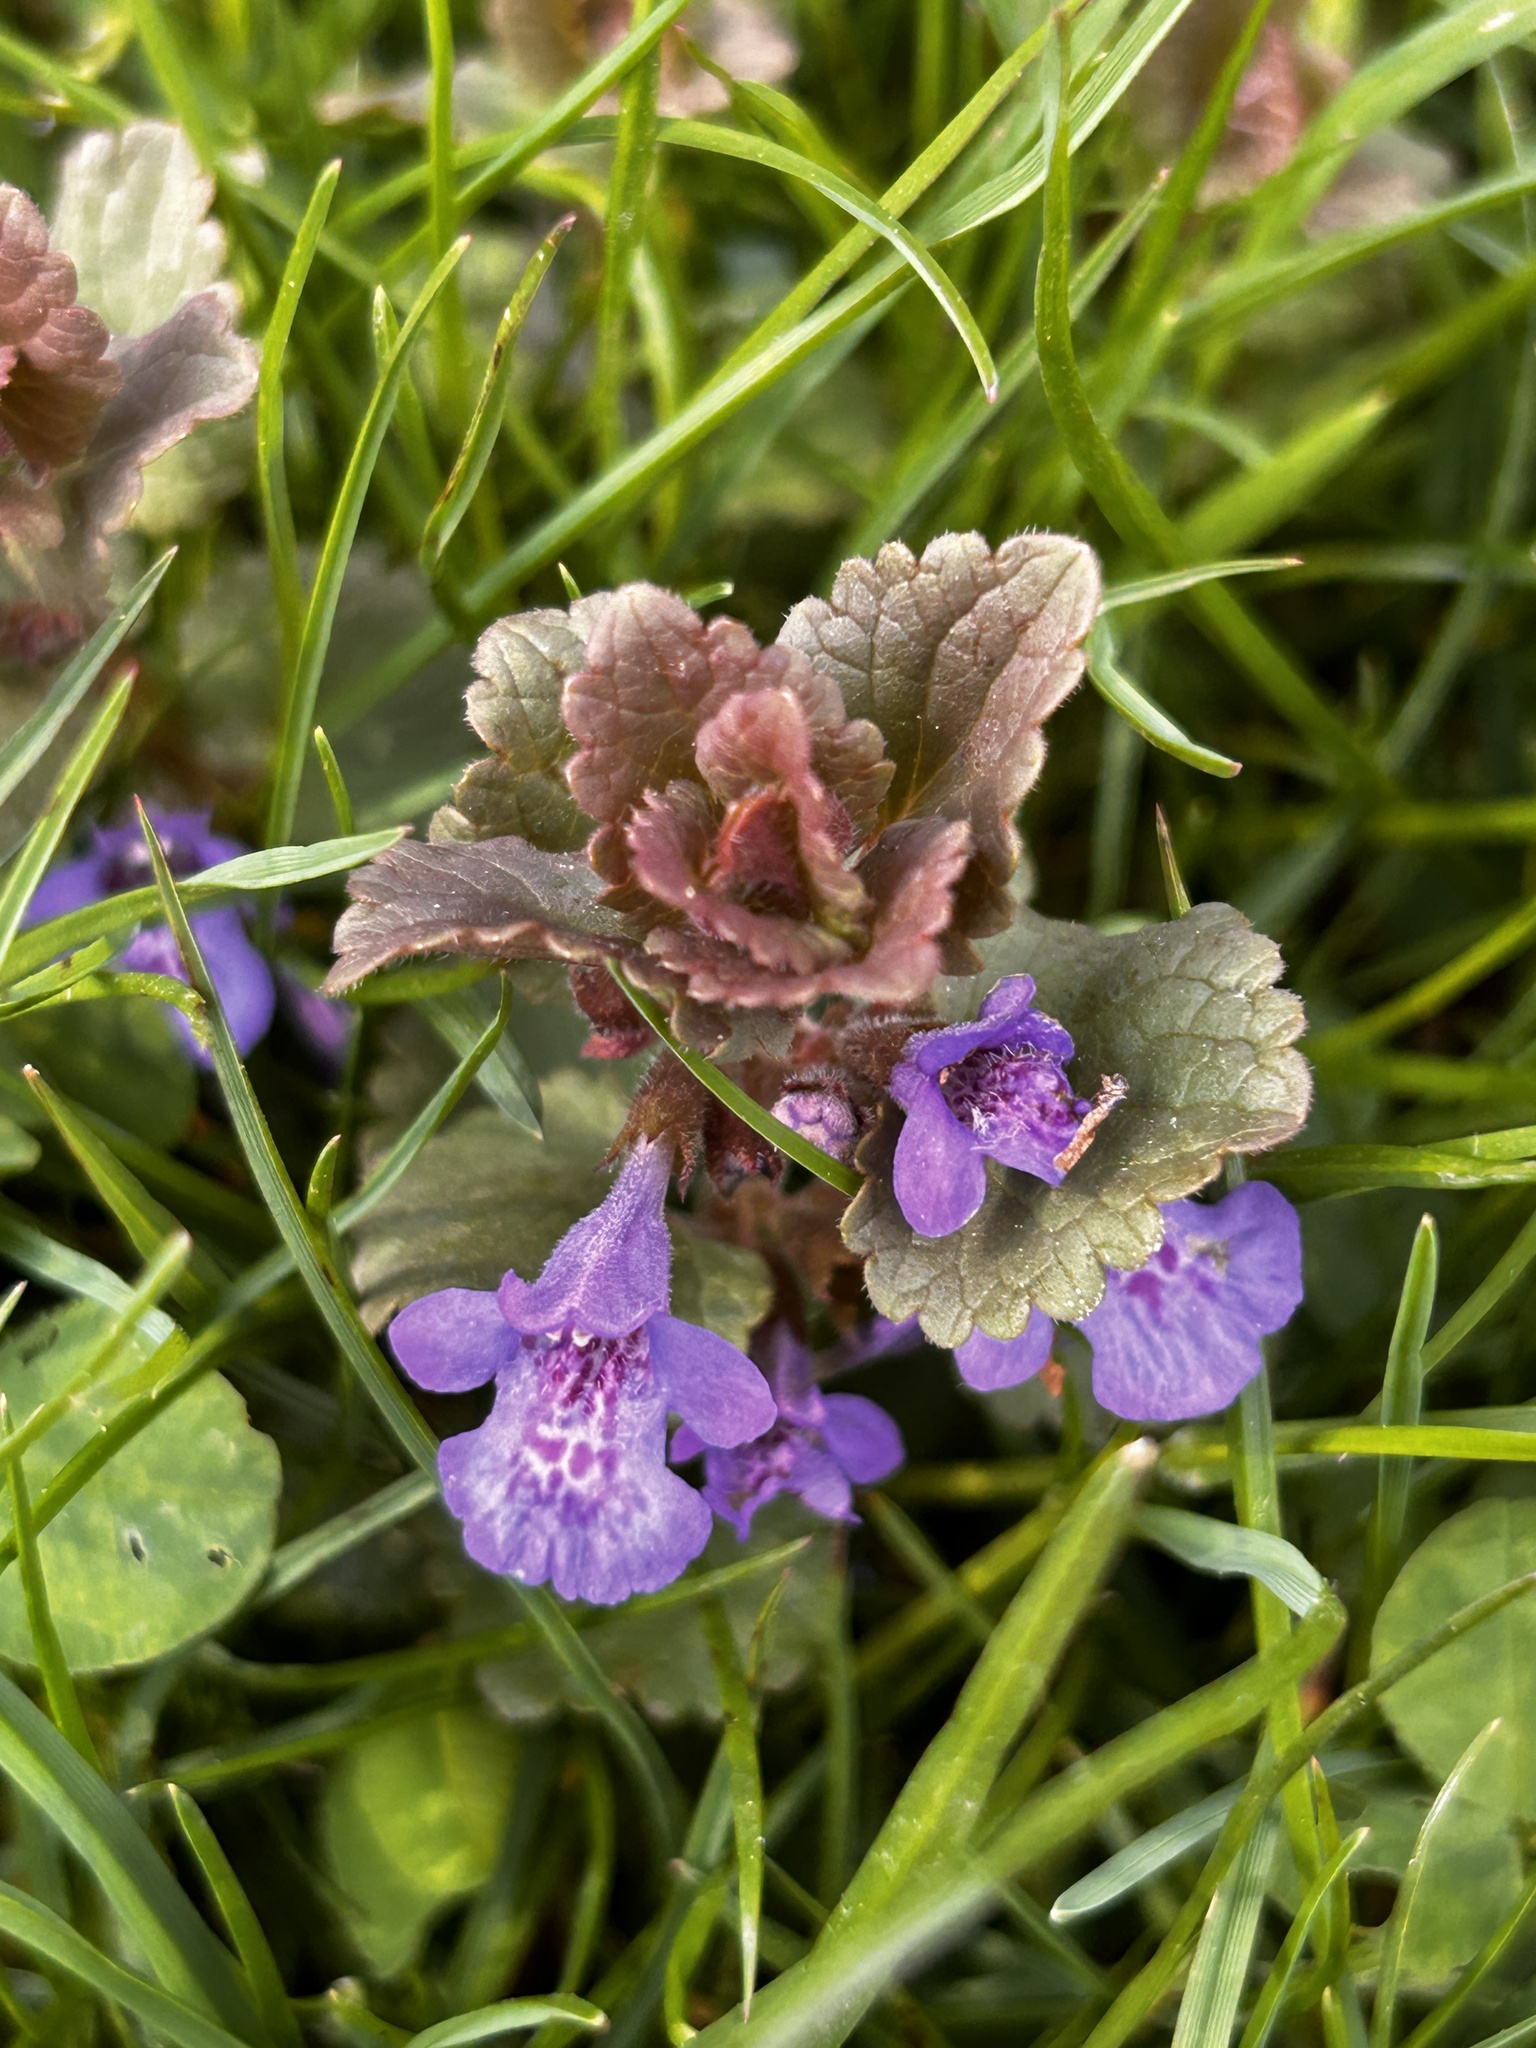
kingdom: Plantae
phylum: Tracheophyta
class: Magnoliopsida
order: Lamiales
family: Lamiaceae
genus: Glechoma
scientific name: Glechoma hederacea
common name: Ground ivy
